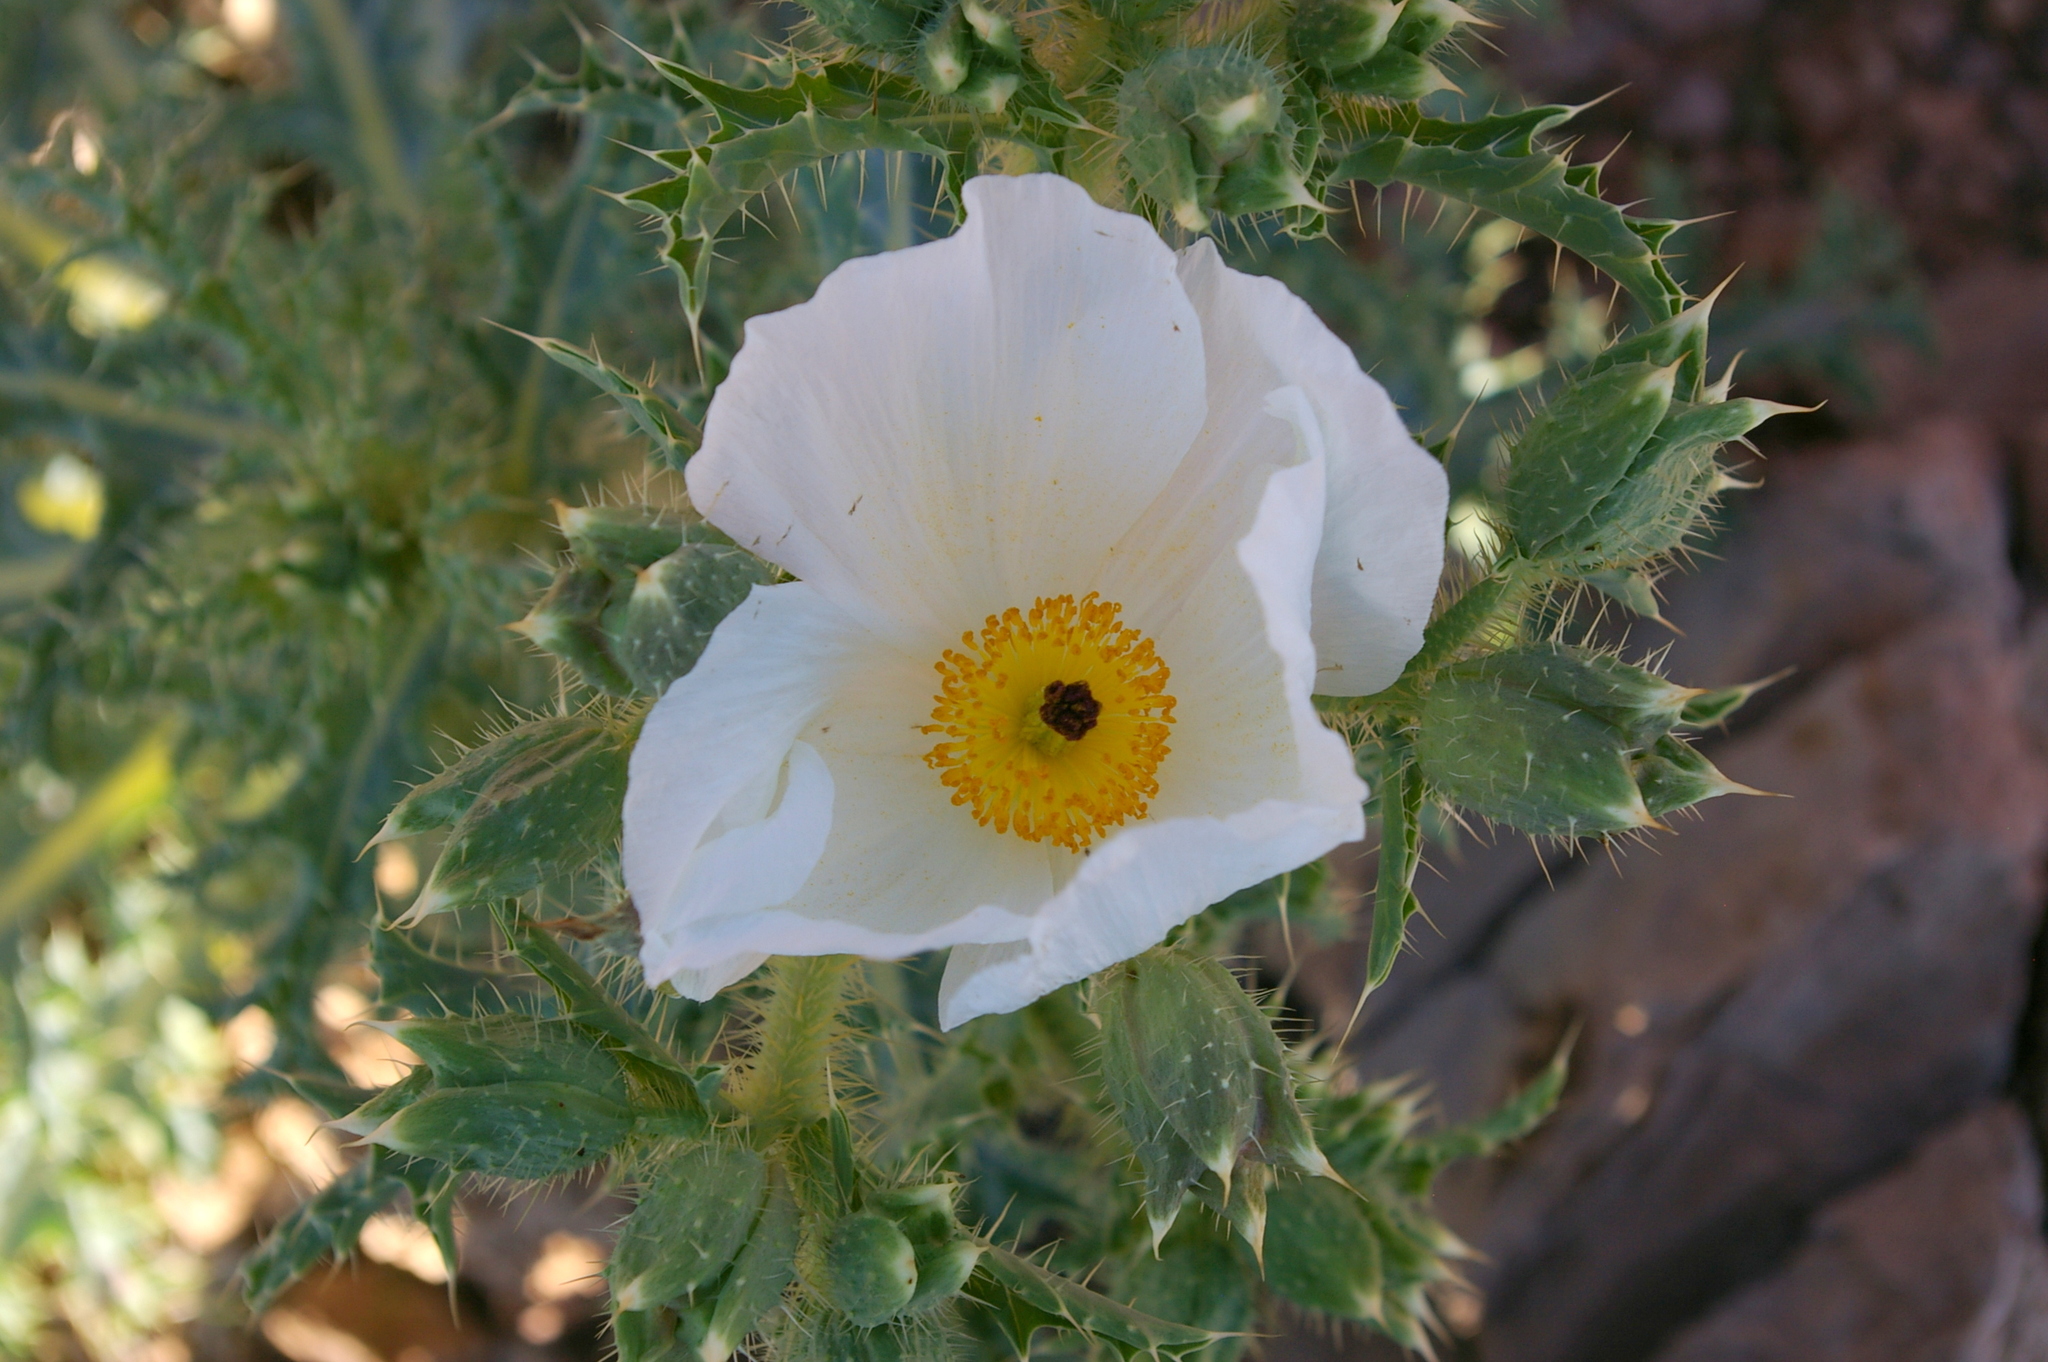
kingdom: Plantae
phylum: Tracheophyta
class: Magnoliopsida
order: Ranunculales
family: Papaveraceae
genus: Argemone
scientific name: Argemone corymbosa
